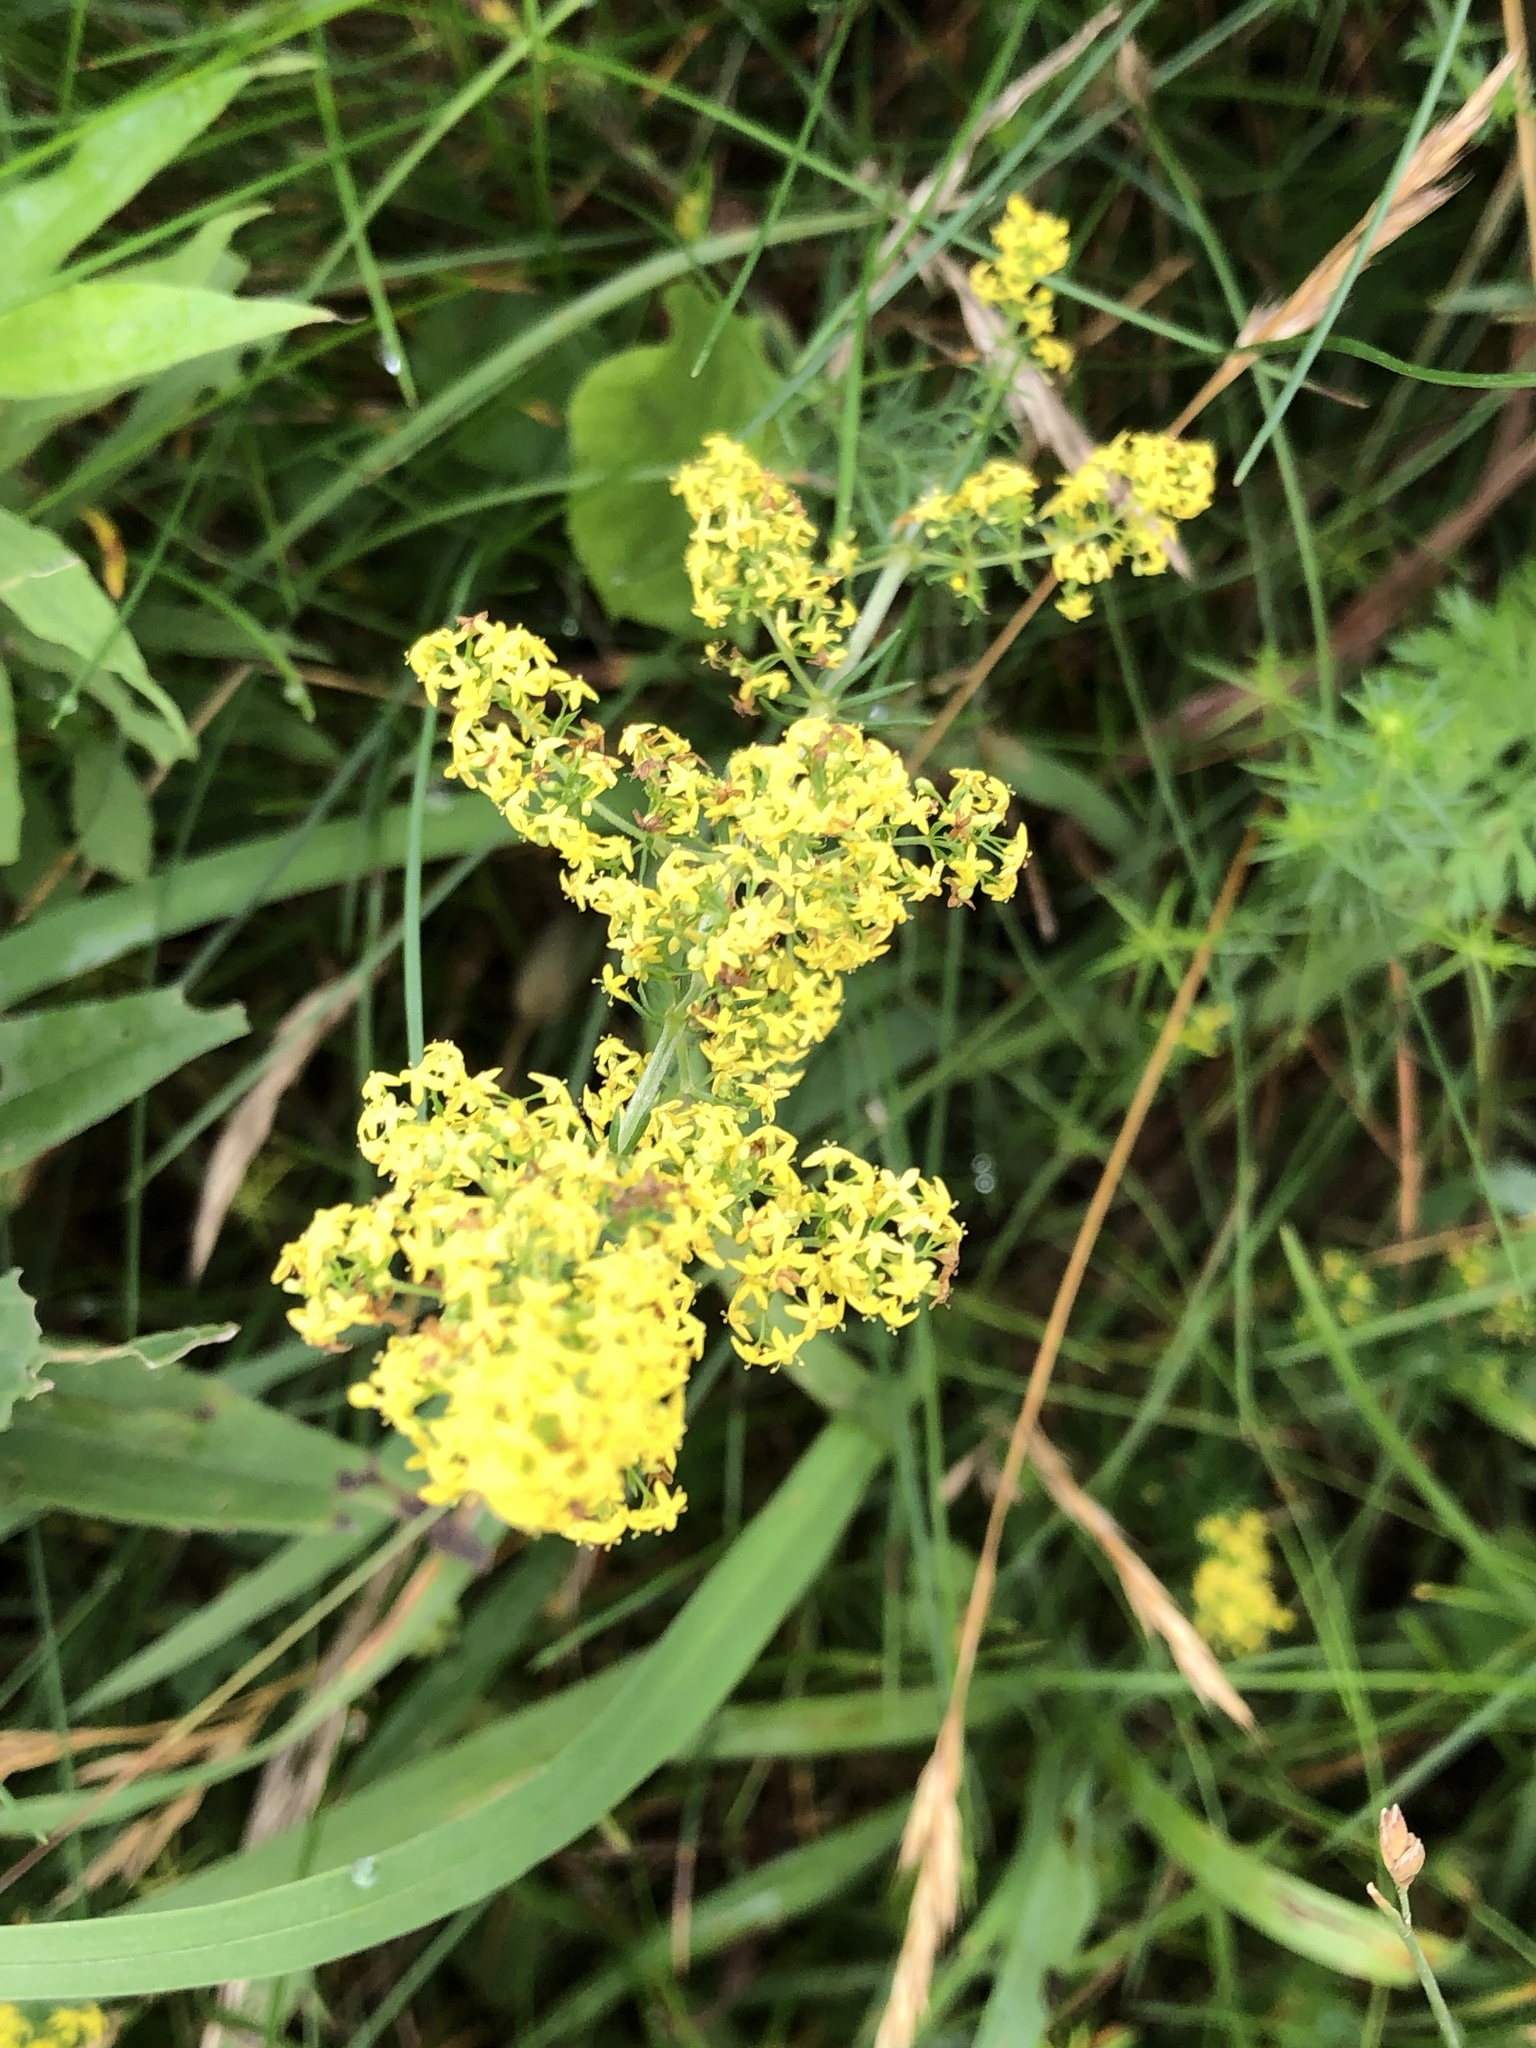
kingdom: Plantae
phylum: Tracheophyta
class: Magnoliopsida
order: Gentianales
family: Rubiaceae
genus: Galium
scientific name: Galium verum
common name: Lady's bedstraw
